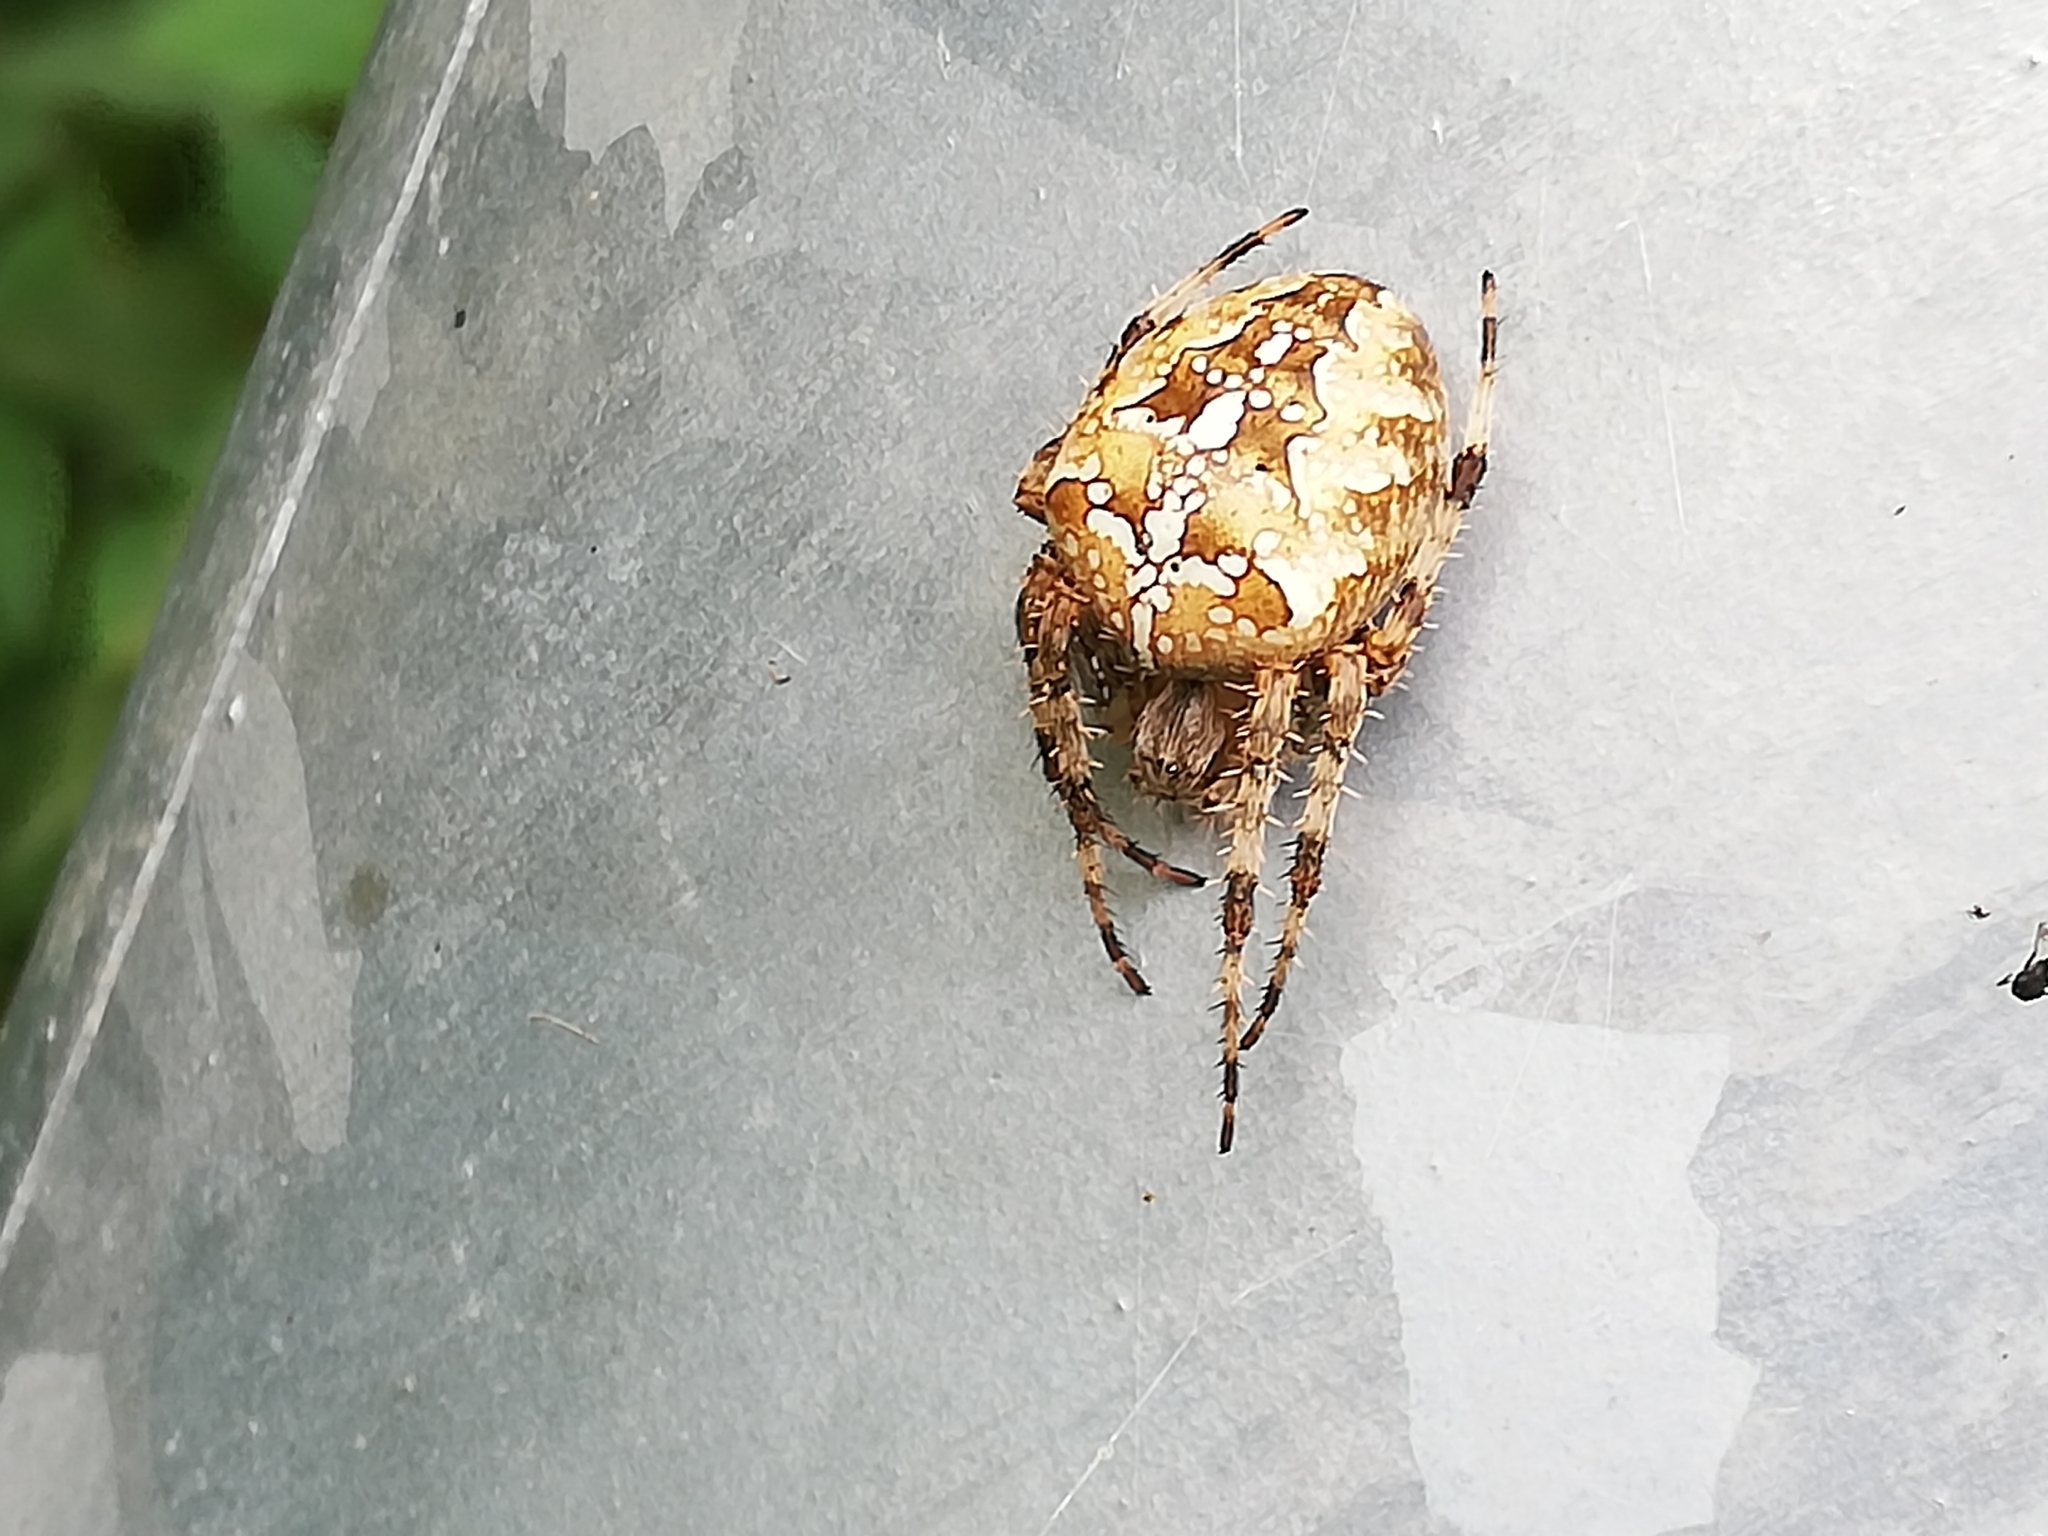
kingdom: Animalia
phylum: Arthropoda
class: Arachnida
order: Araneae
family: Araneidae
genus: Araneus
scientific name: Araneus diadematus
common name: Cross orbweaver
